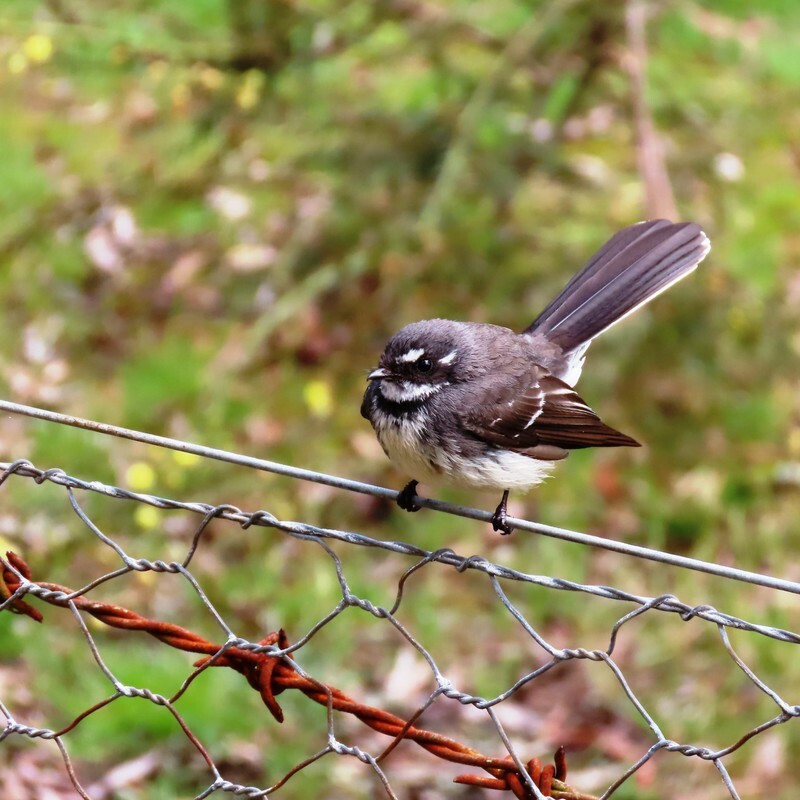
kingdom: Animalia
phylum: Chordata
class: Aves
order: Passeriformes
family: Rhipiduridae
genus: Rhipidura
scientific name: Rhipidura albiscapa
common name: Grey fantail
